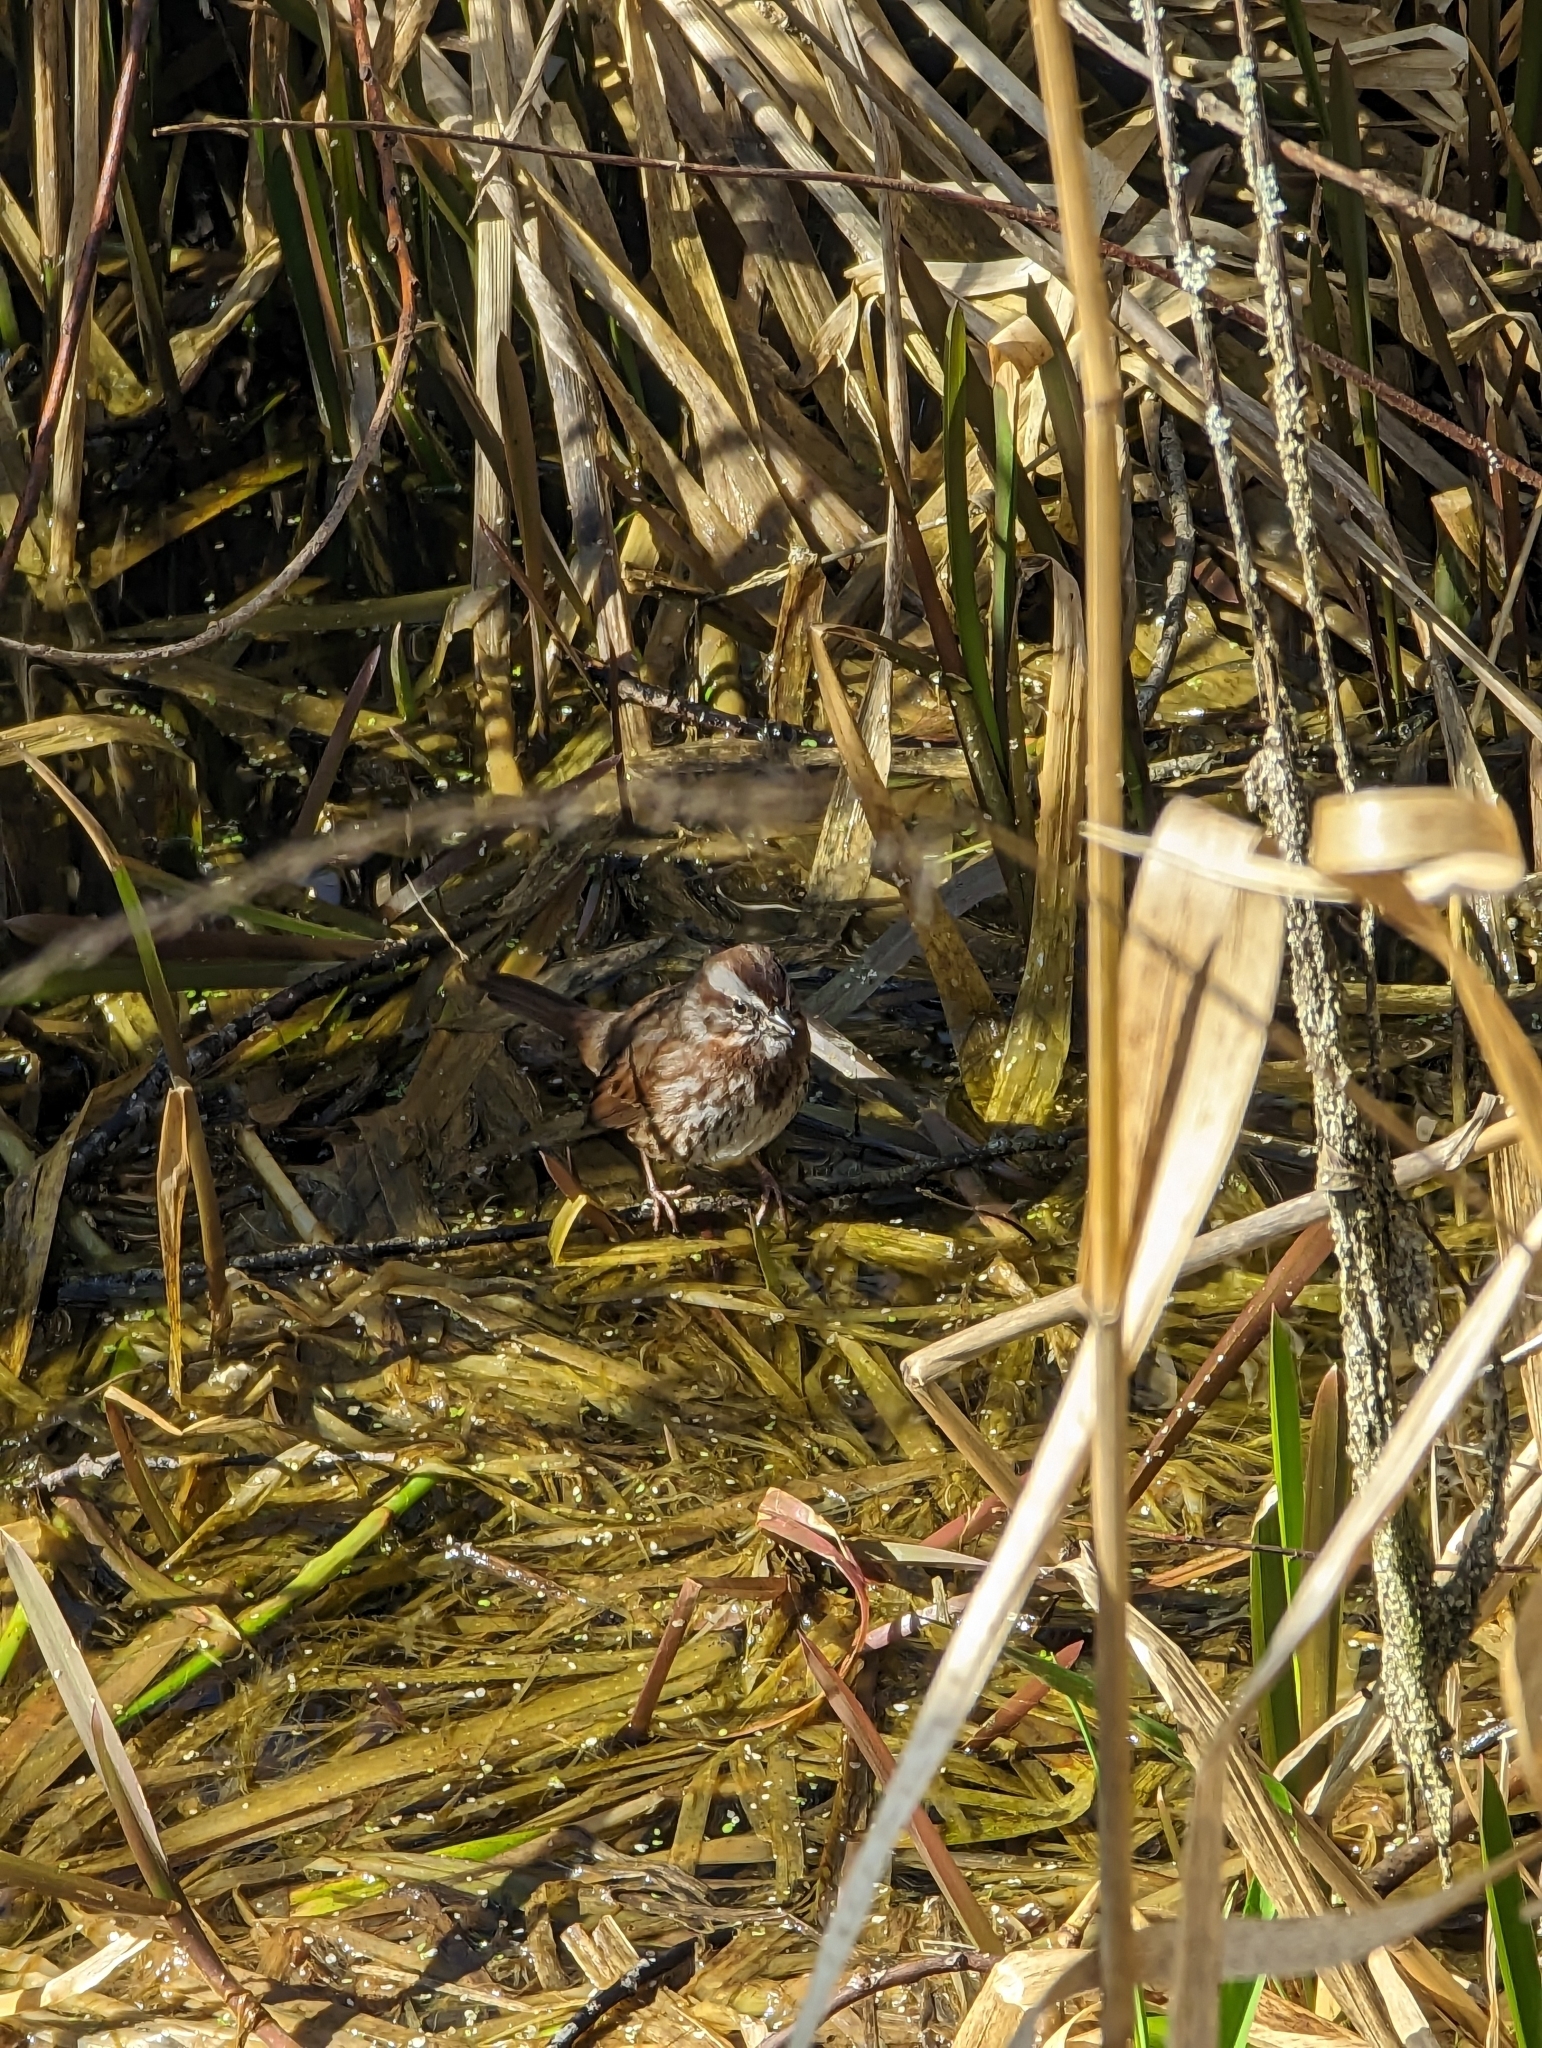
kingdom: Animalia
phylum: Chordata
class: Aves
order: Passeriformes
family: Passerellidae
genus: Melospiza
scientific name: Melospiza melodia
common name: Song sparrow
